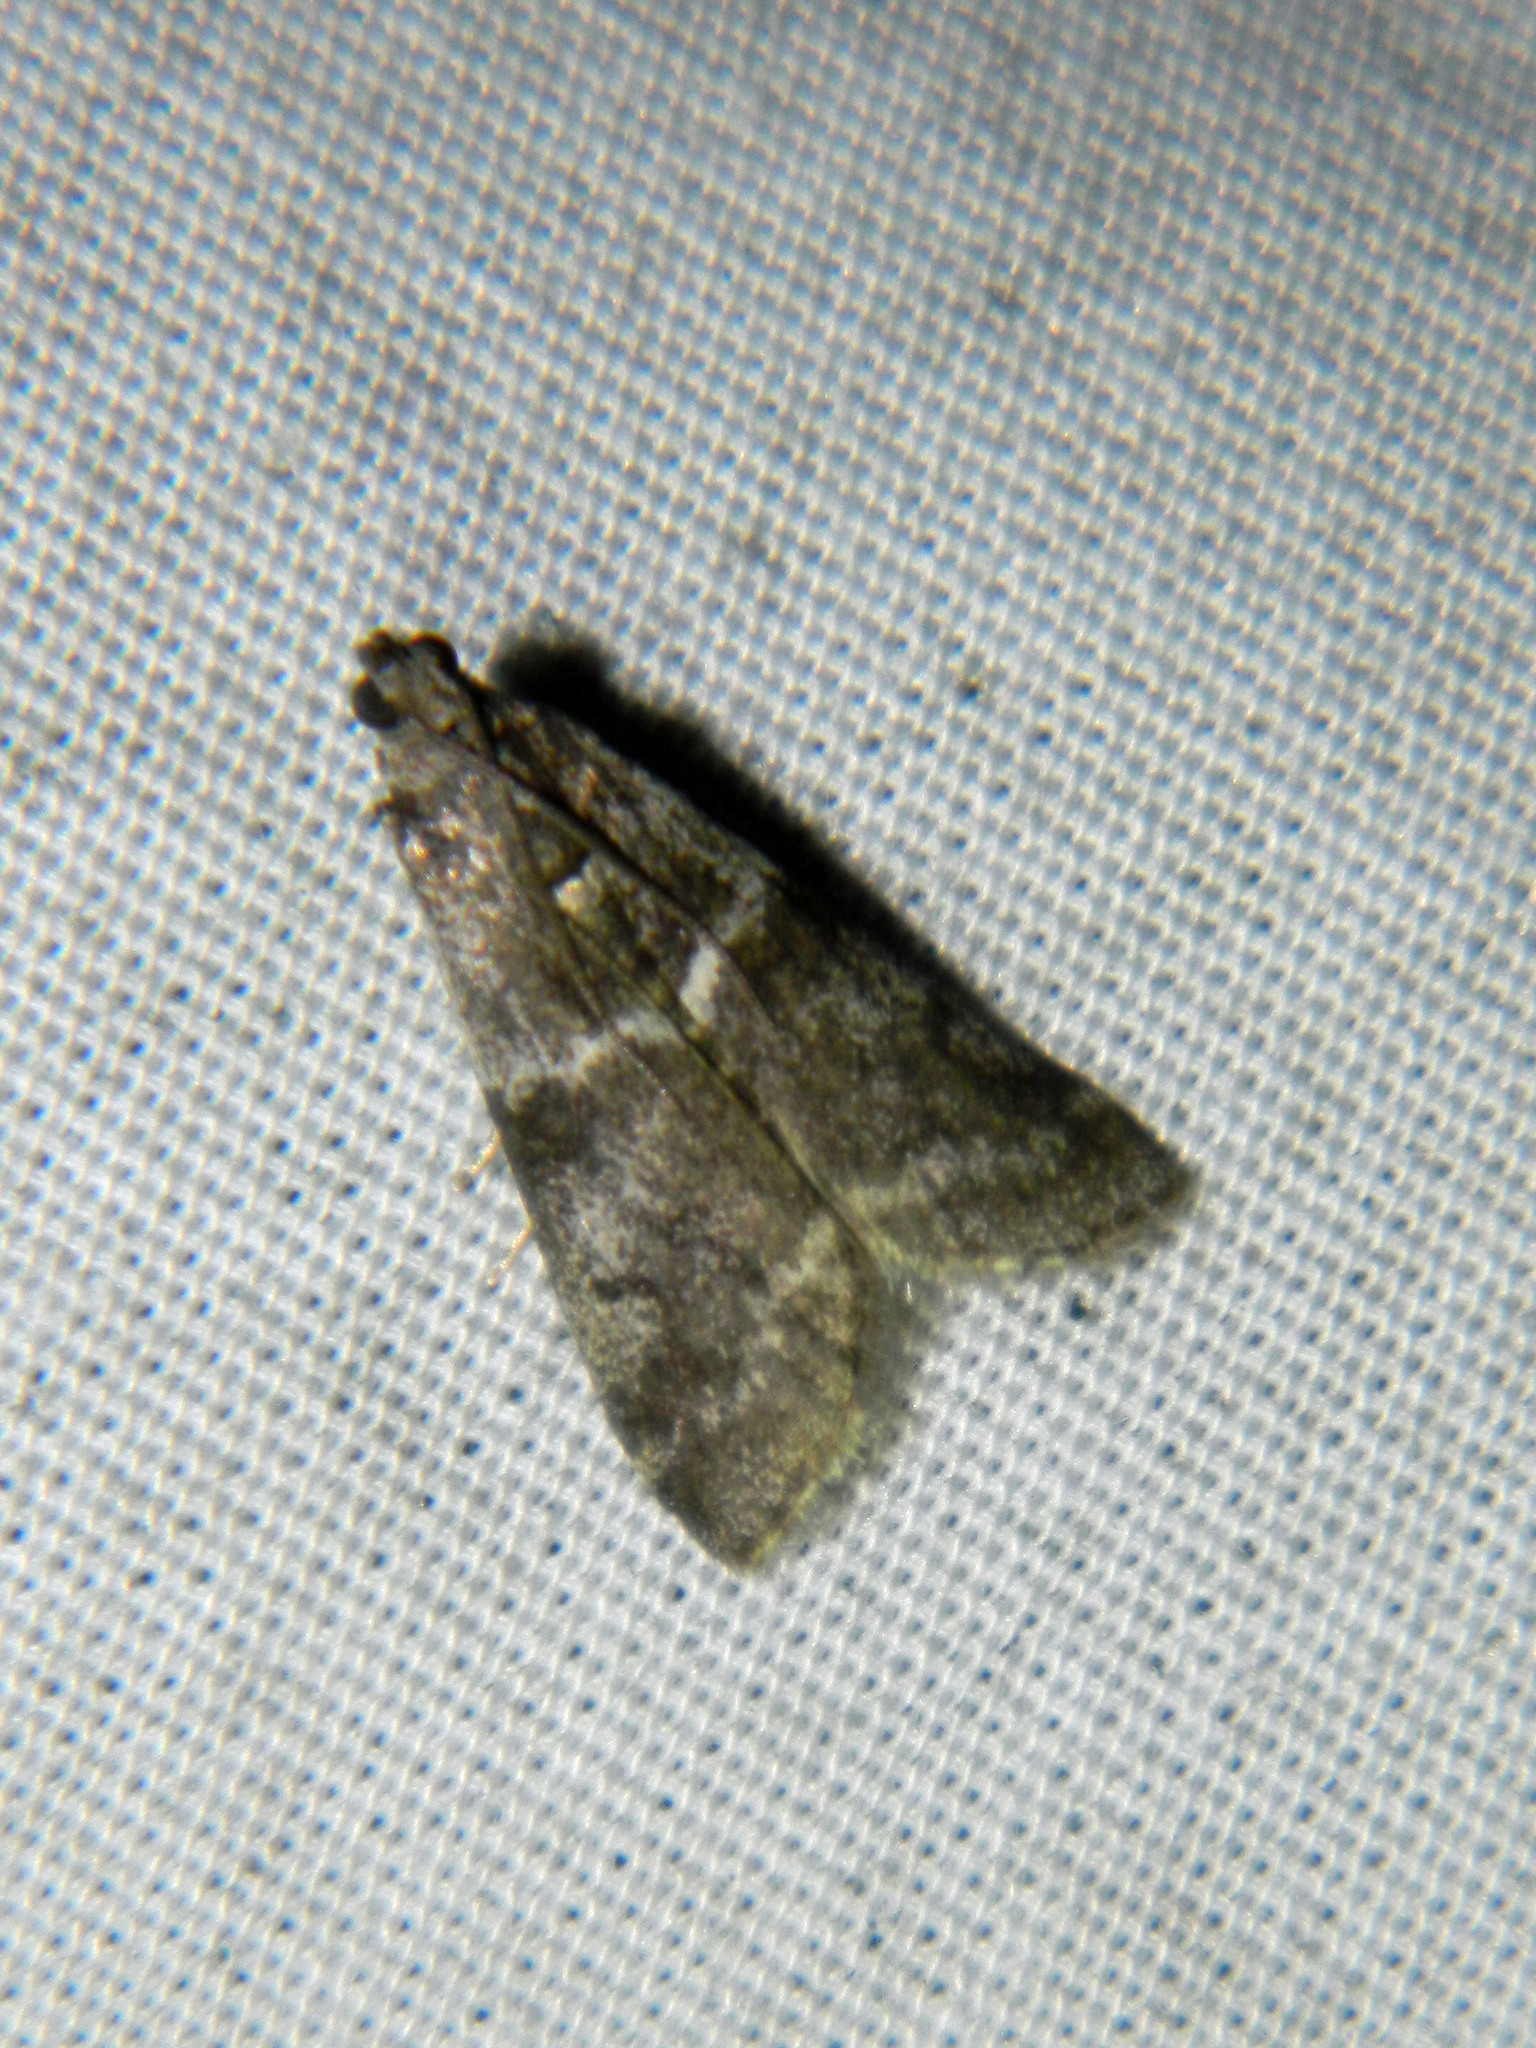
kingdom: Animalia
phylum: Arthropoda
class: Insecta
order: Lepidoptera
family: Pyralidae
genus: Apomyelois
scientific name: Apomyelois bistriatella
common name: Heath knot-horn
